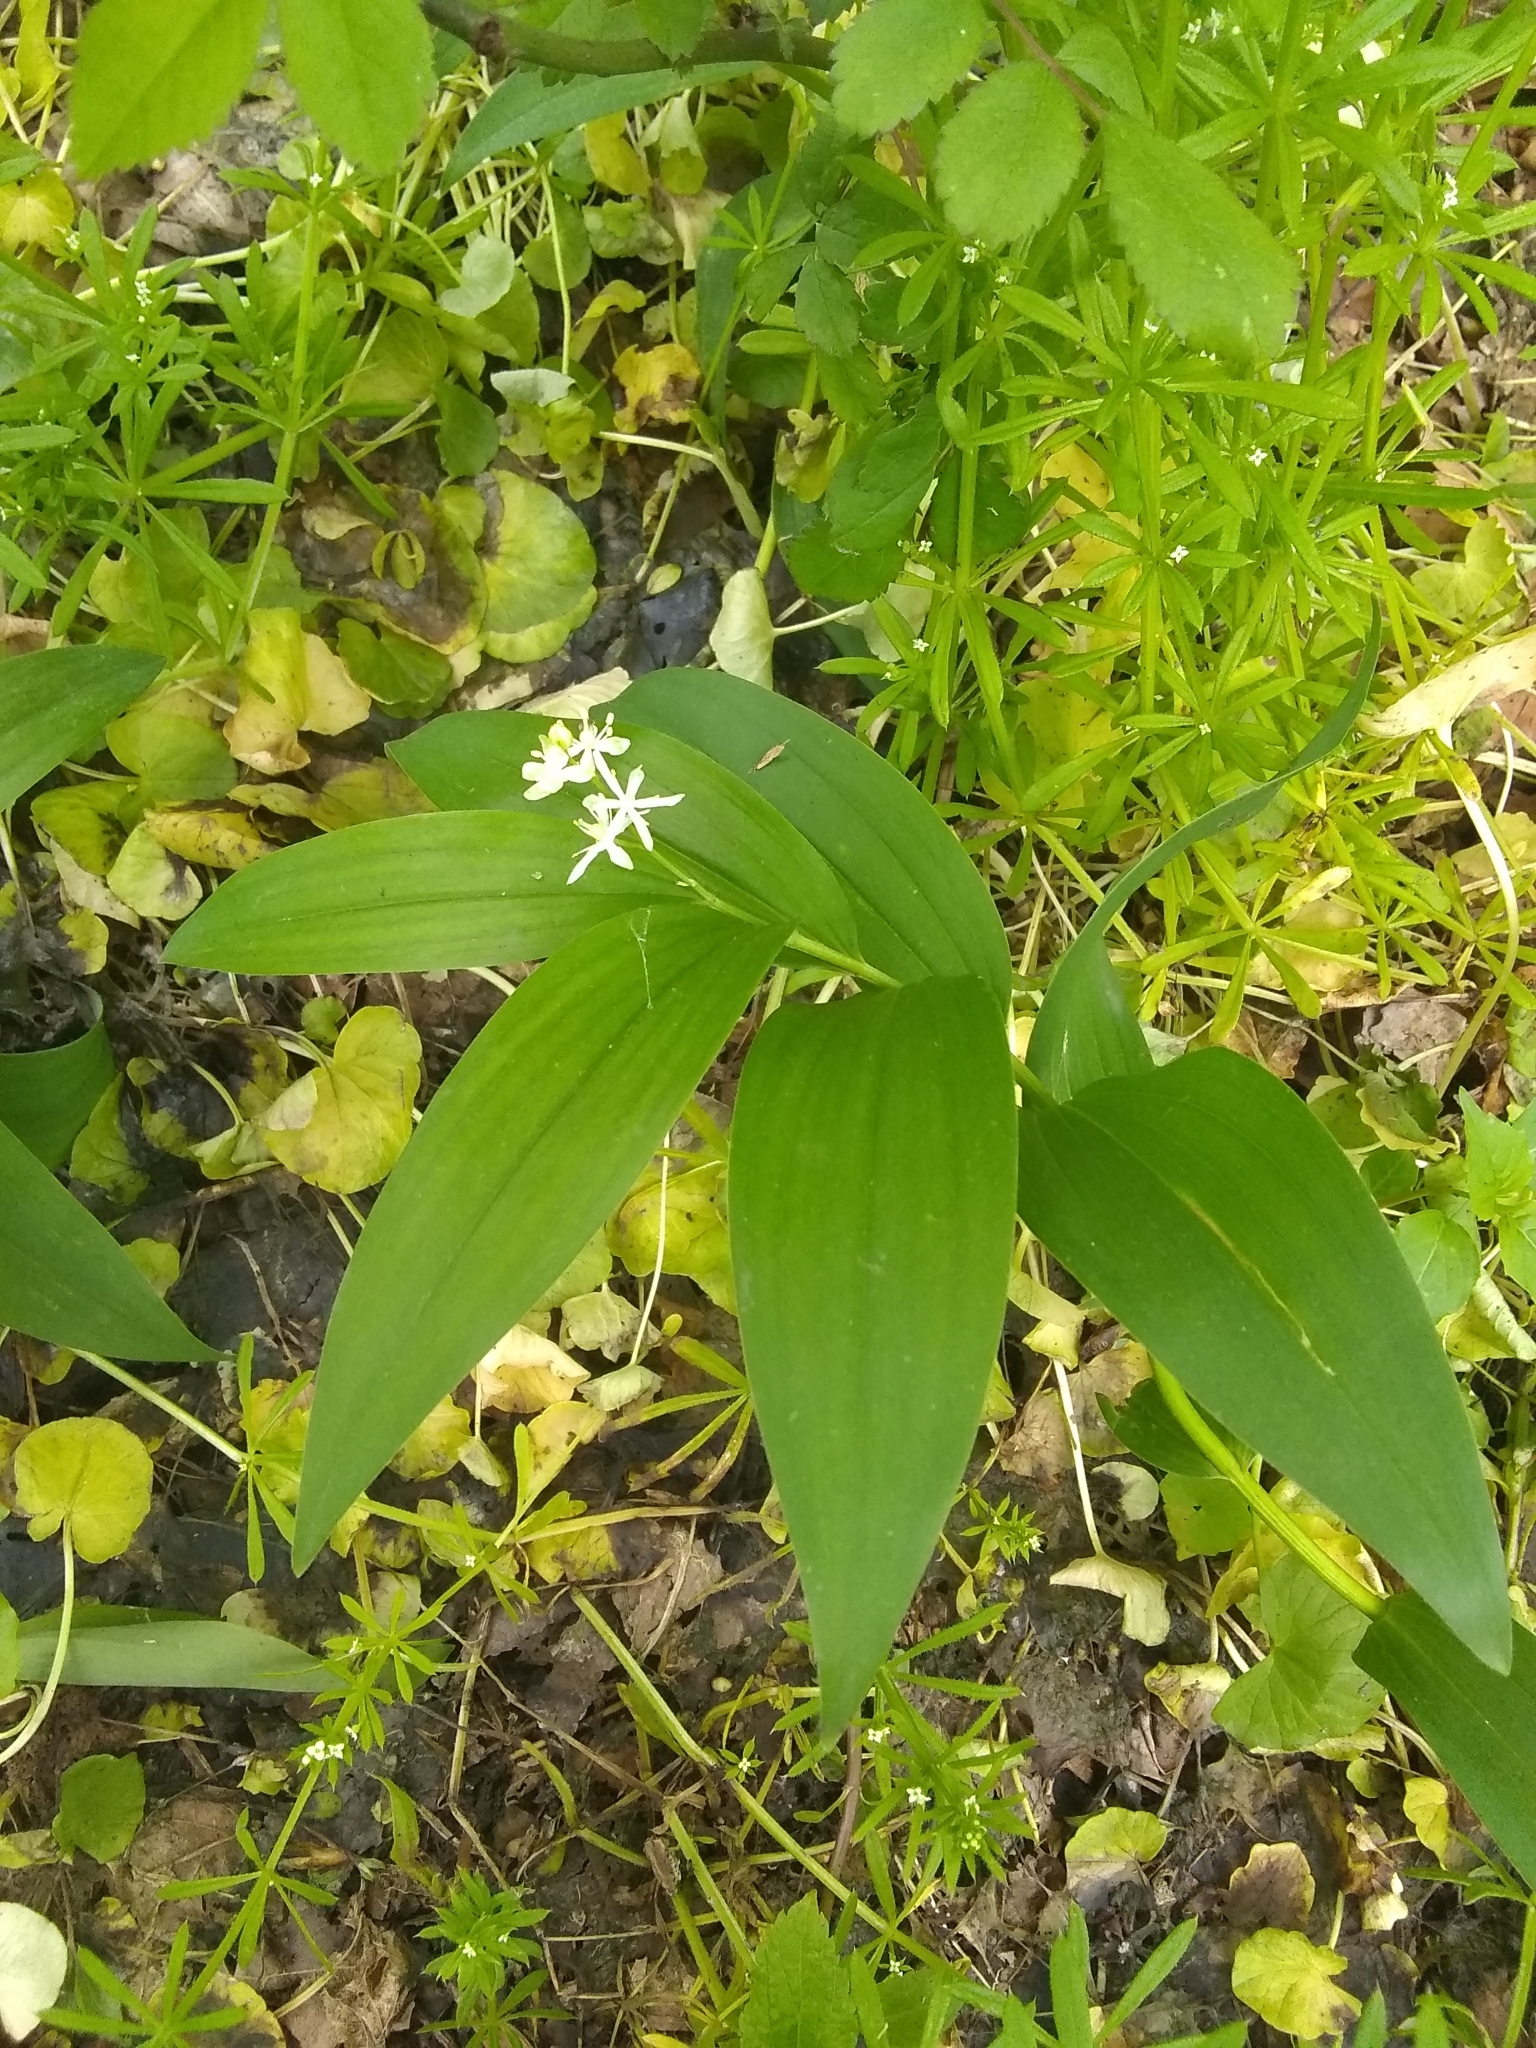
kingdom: Plantae
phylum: Tracheophyta
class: Liliopsida
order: Asparagales
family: Asparagaceae
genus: Maianthemum
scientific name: Maianthemum stellatum
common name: Little false solomon's seal
